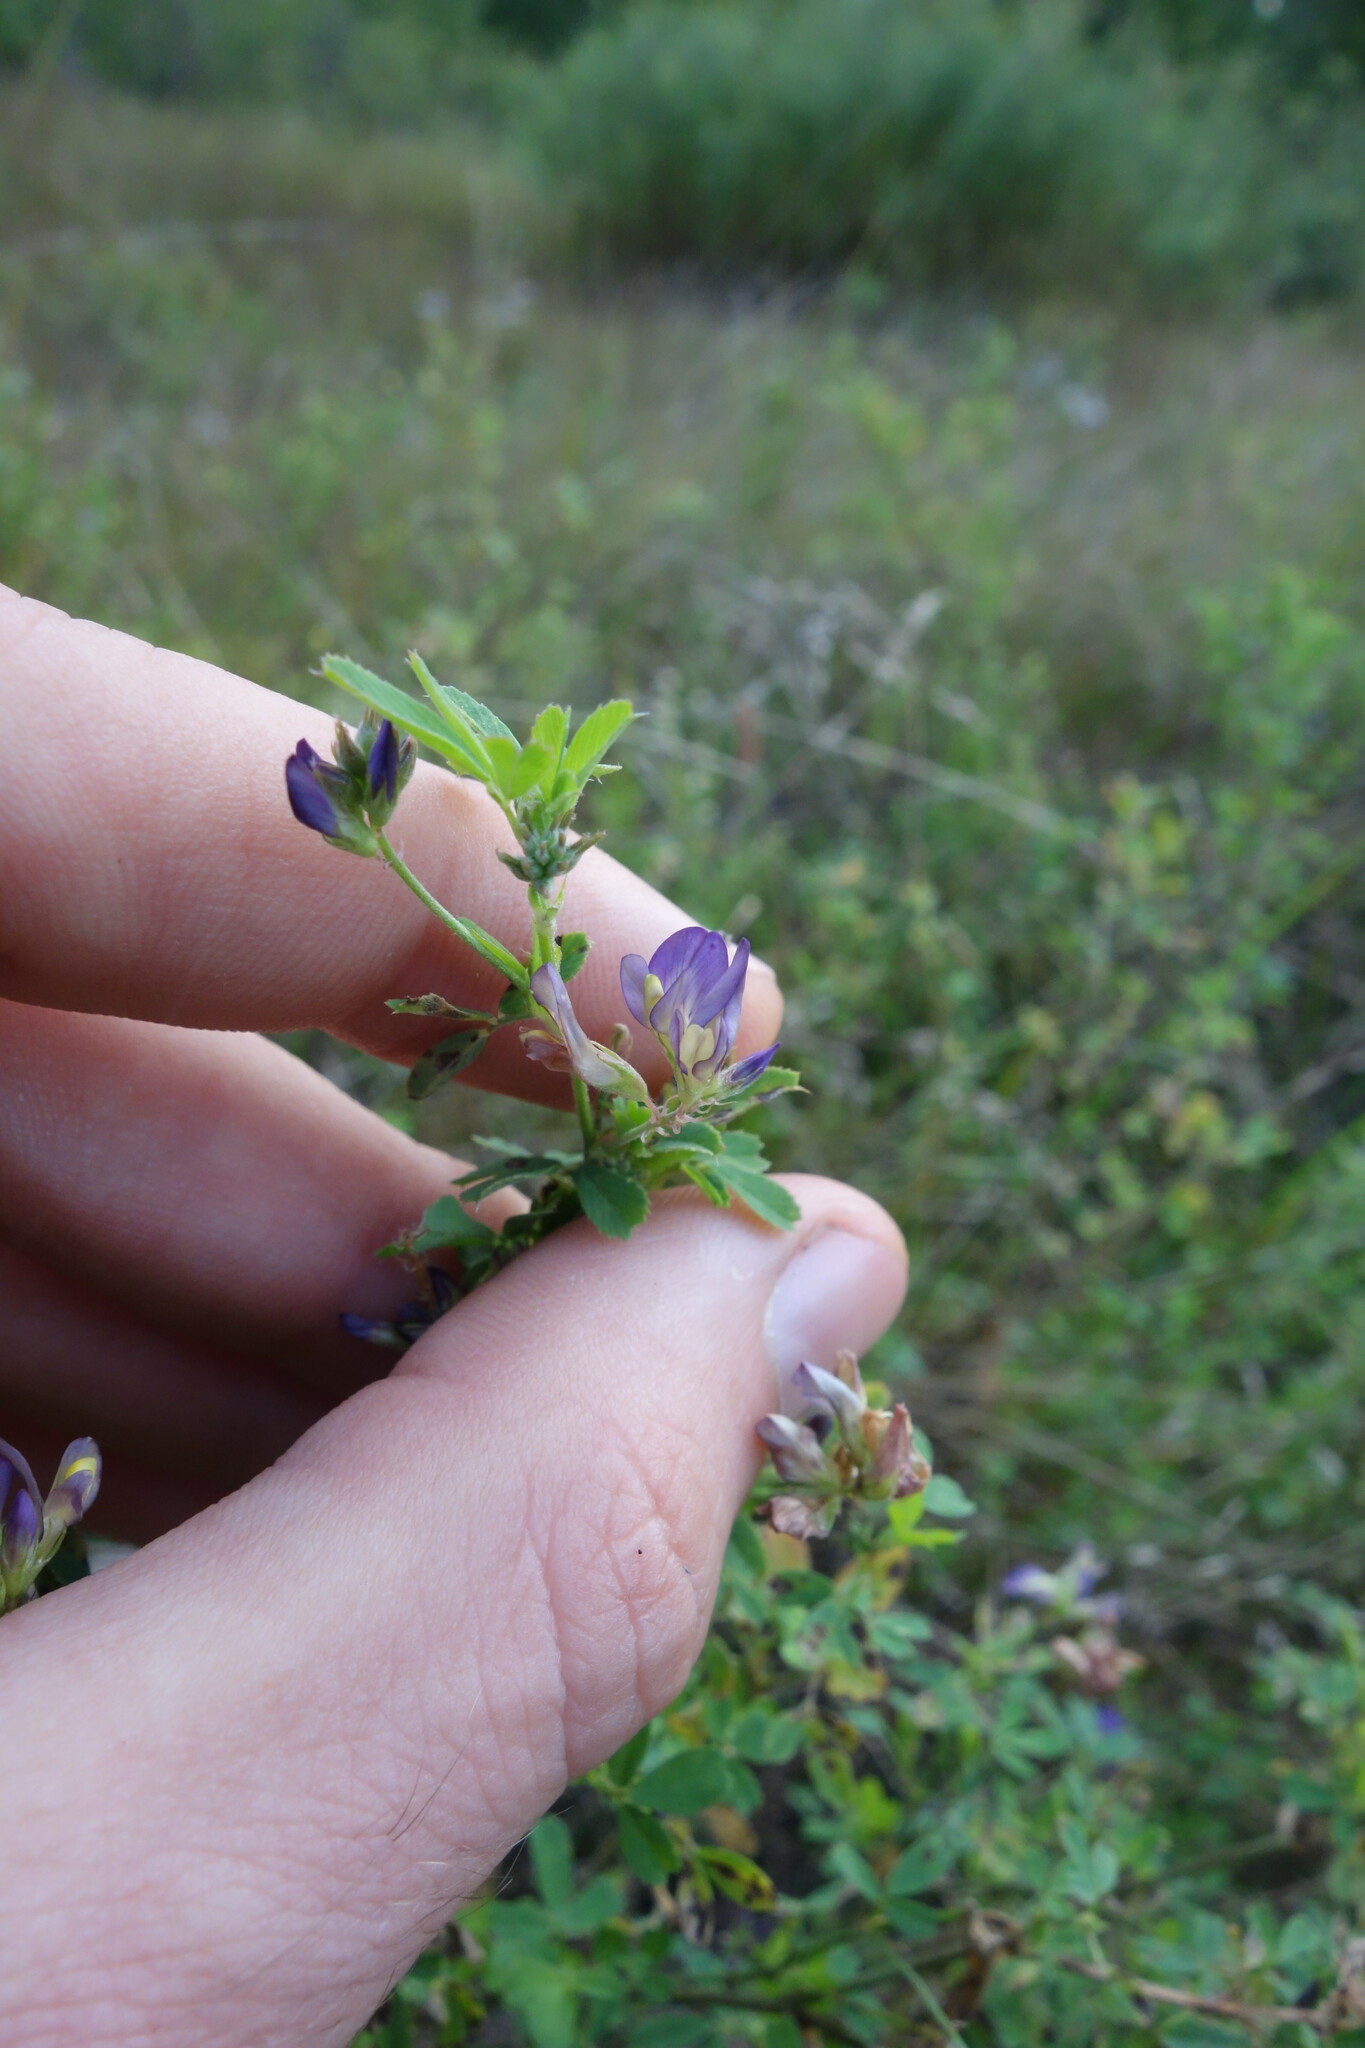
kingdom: Plantae
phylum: Tracheophyta
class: Magnoliopsida
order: Fabales
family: Fabaceae
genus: Medicago
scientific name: Medicago varia
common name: Sand lucerne
